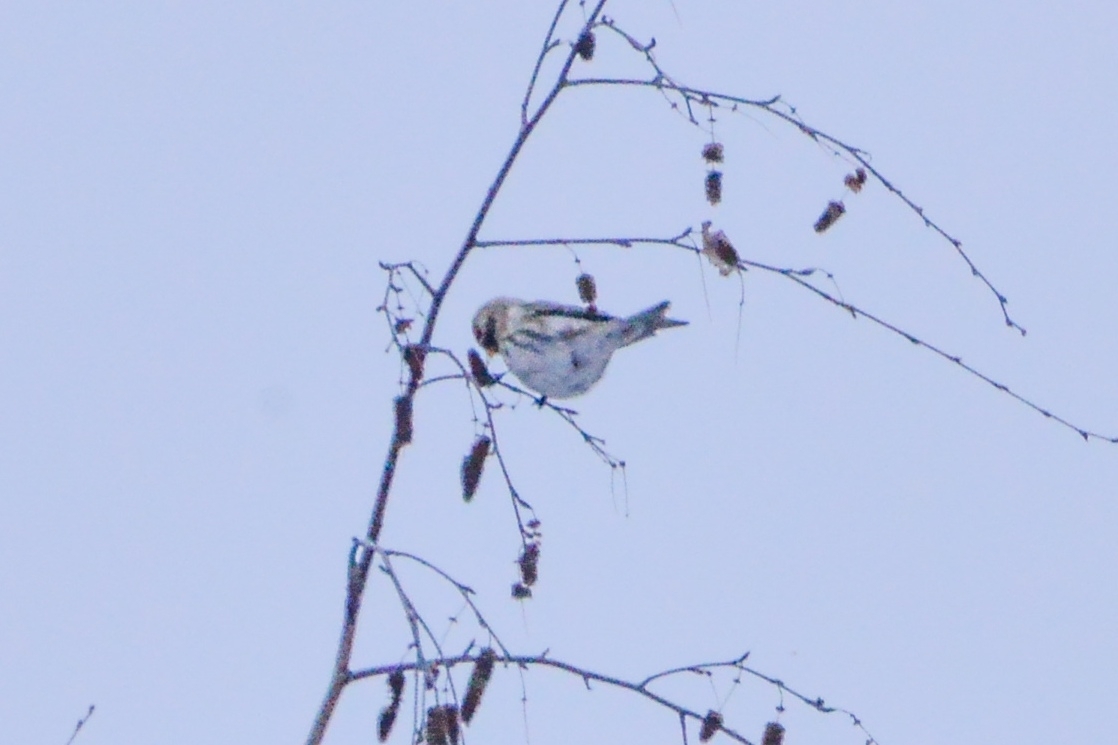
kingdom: Animalia
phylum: Chordata
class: Aves
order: Passeriformes
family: Fringillidae
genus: Acanthis
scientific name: Acanthis flammea
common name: Common redpoll
